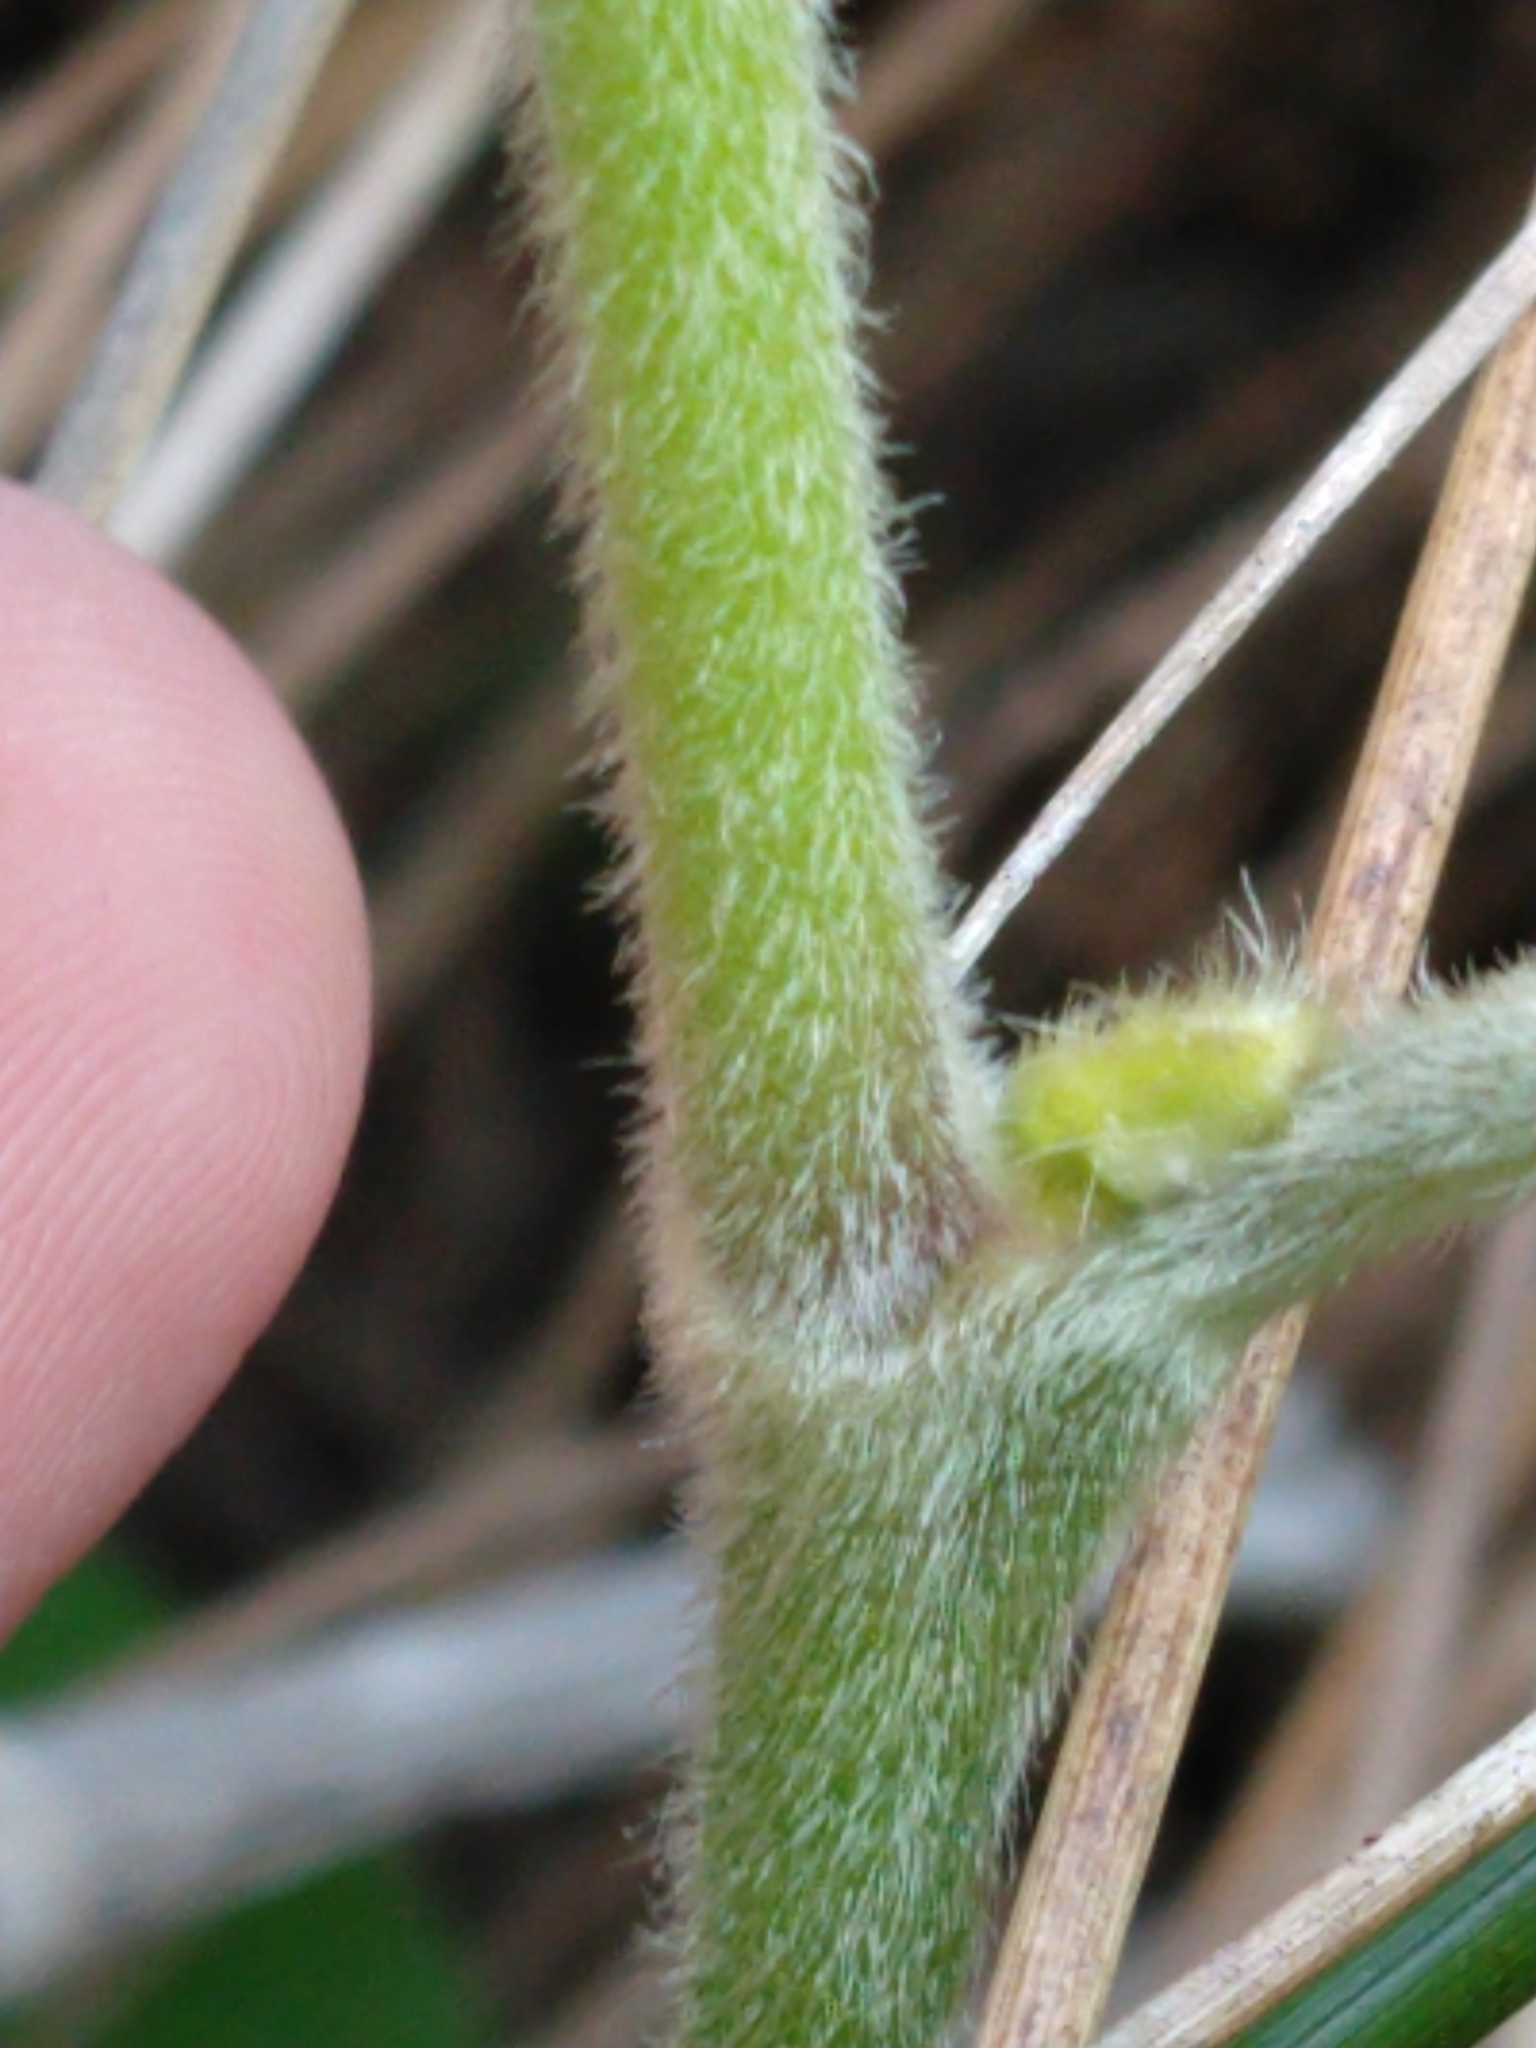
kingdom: Plantae
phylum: Tracheophyta
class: Magnoliopsida
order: Piperales
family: Aristolochiaceae
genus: Isotrema
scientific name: Isotrema californicum
